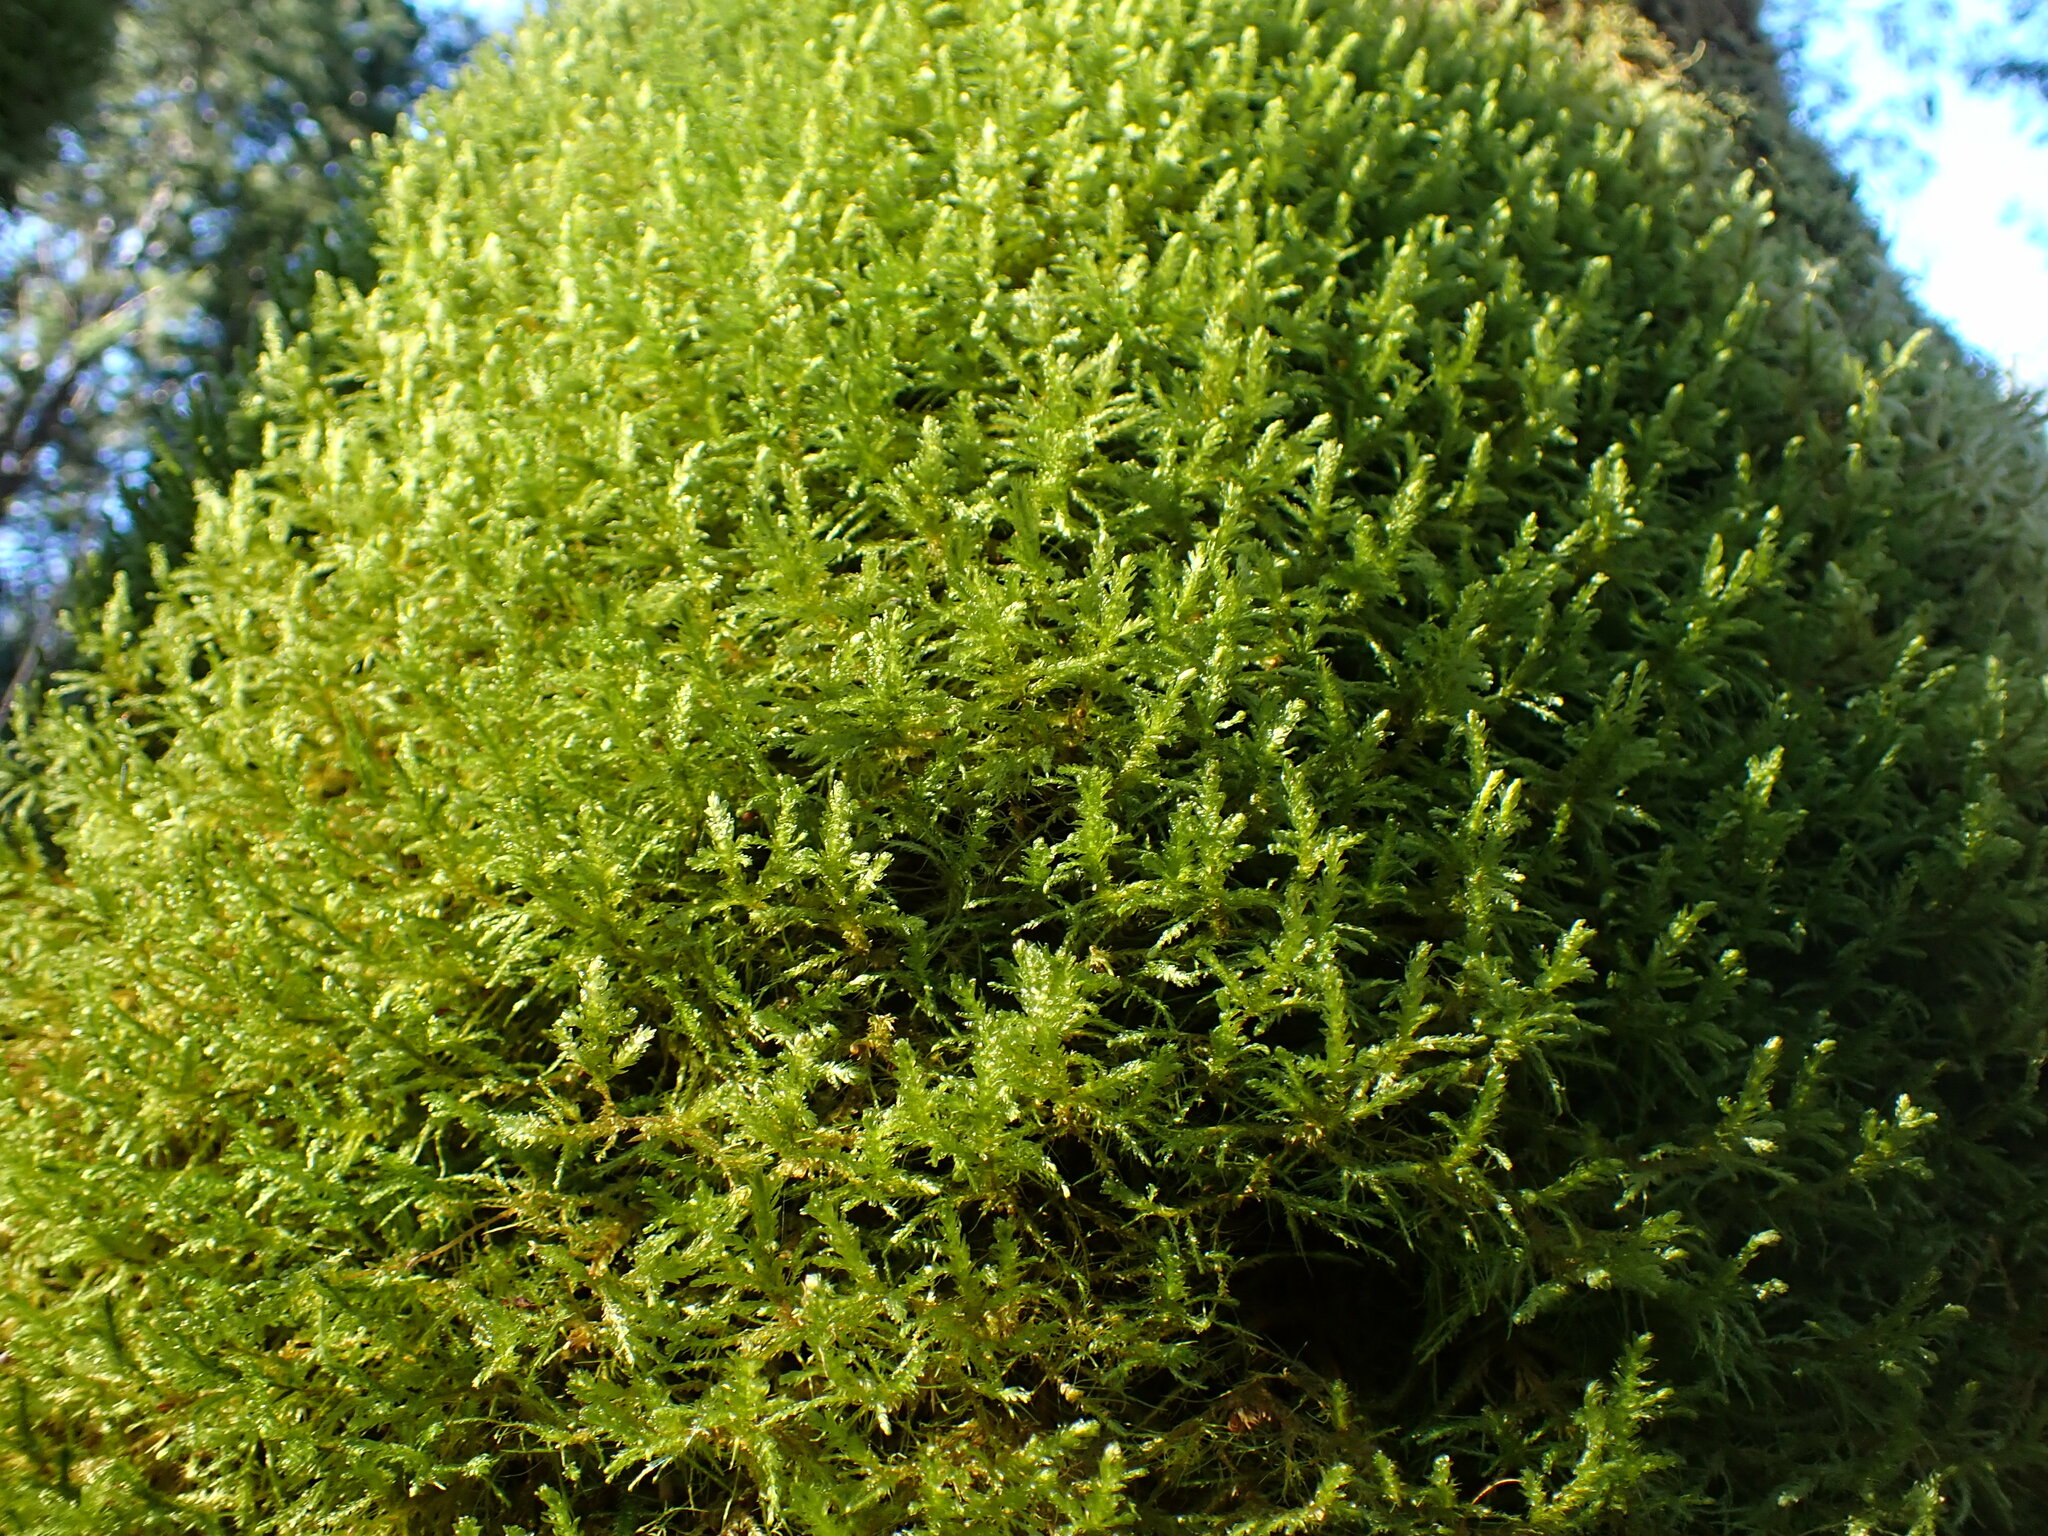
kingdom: Plantae
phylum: Bryophyta
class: Bryopsida
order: Hypnales
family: Neckeraceae
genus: Metaneckera
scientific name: Metaneckera menziesii
